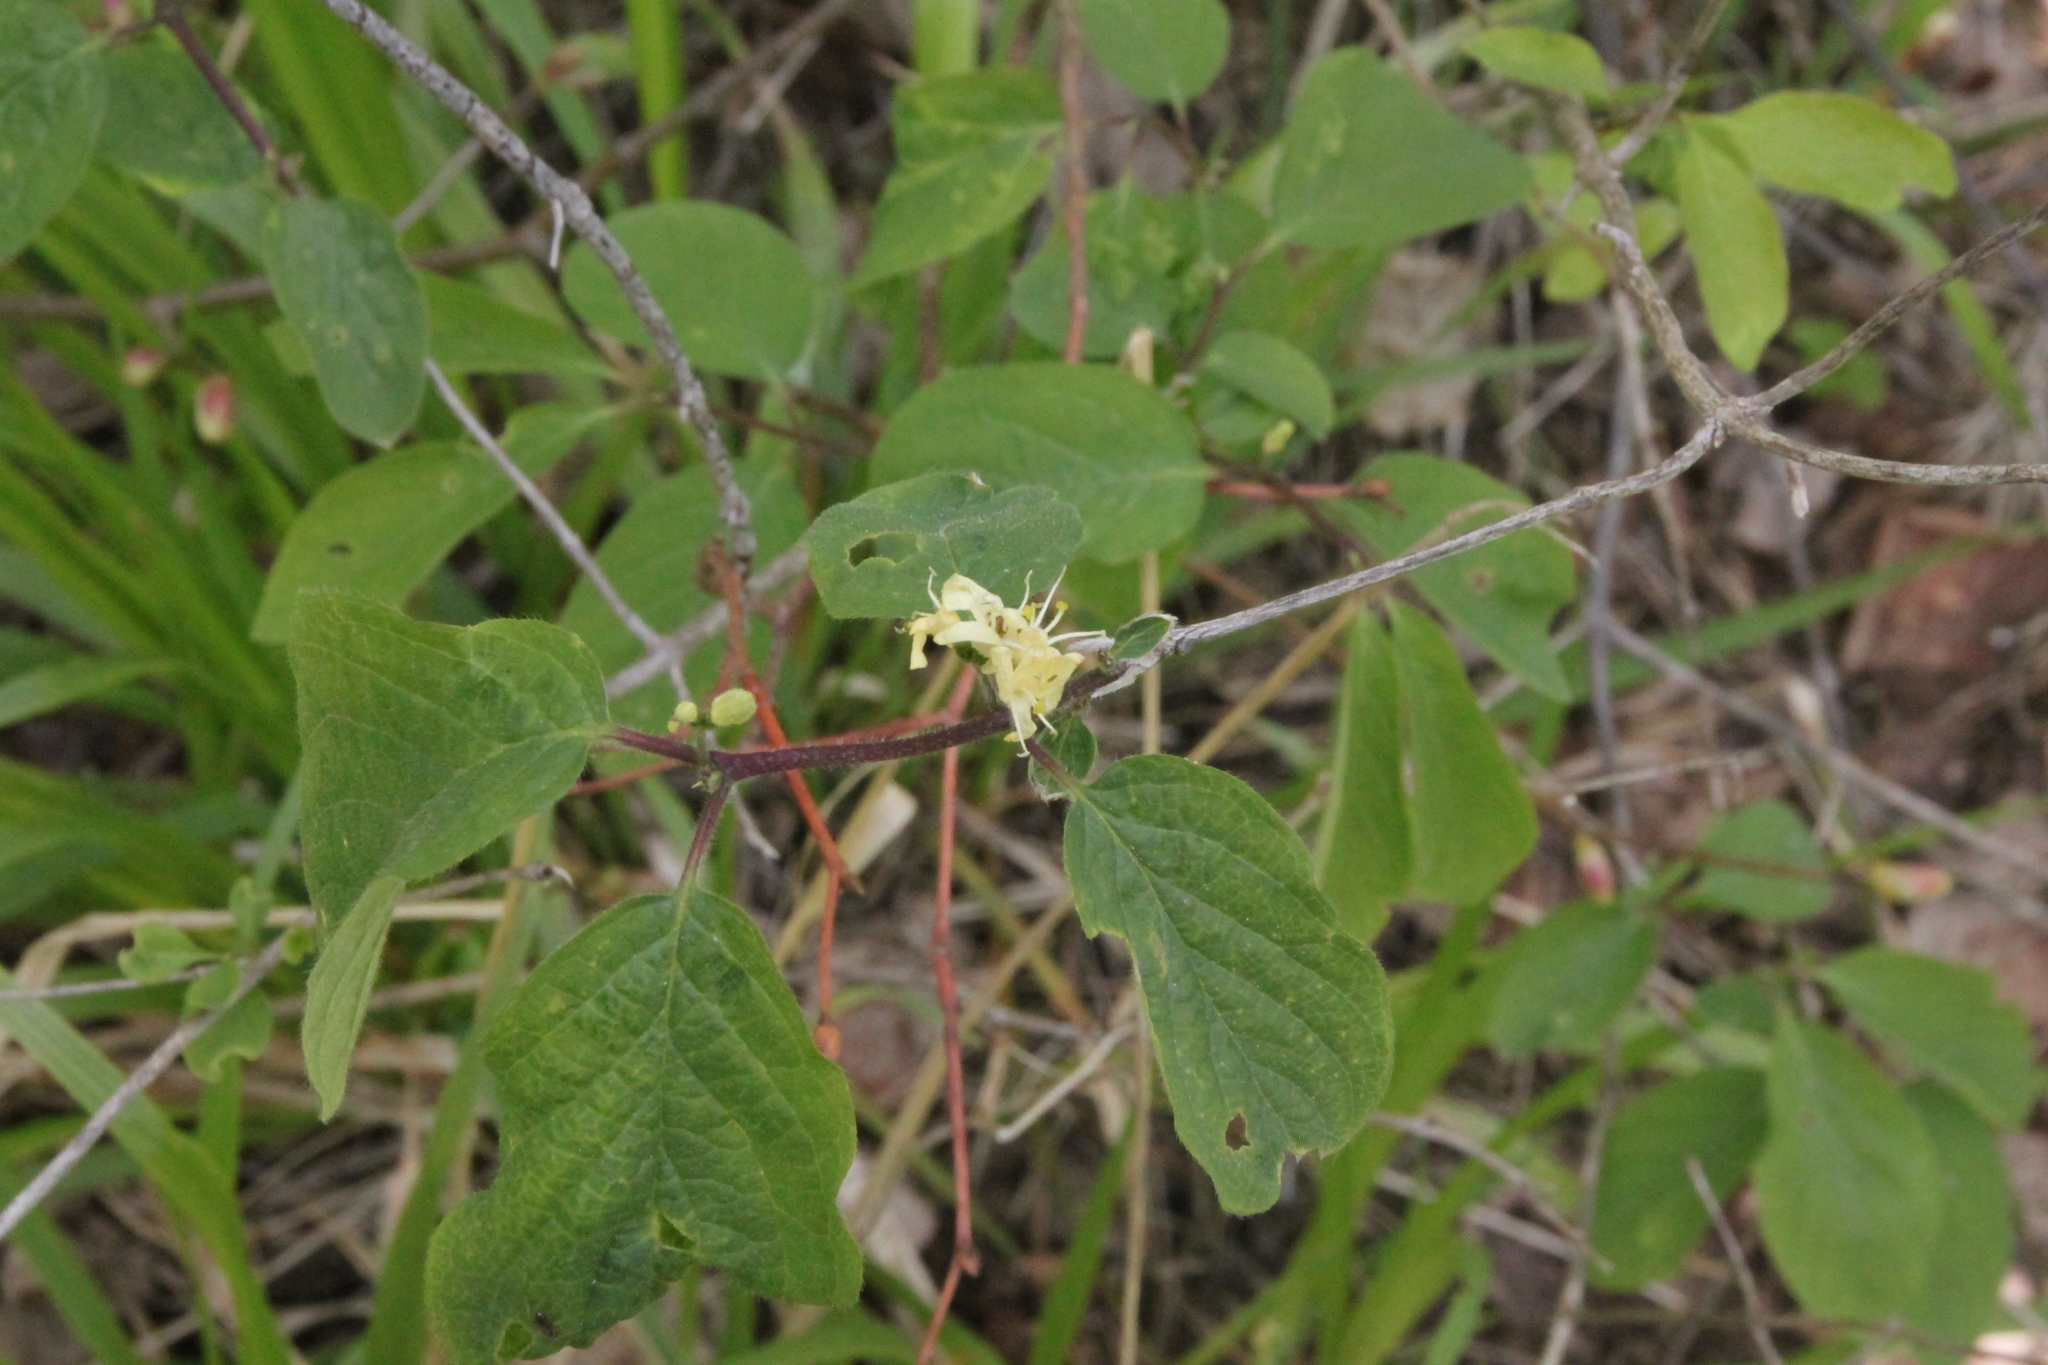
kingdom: Plantae
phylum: Tracheophyta
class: Magnoliopsida
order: Dipsacales
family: Caprifoliaceae
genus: Lonicera
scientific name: Lonicera xylosteum
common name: Fly honeysuckle
